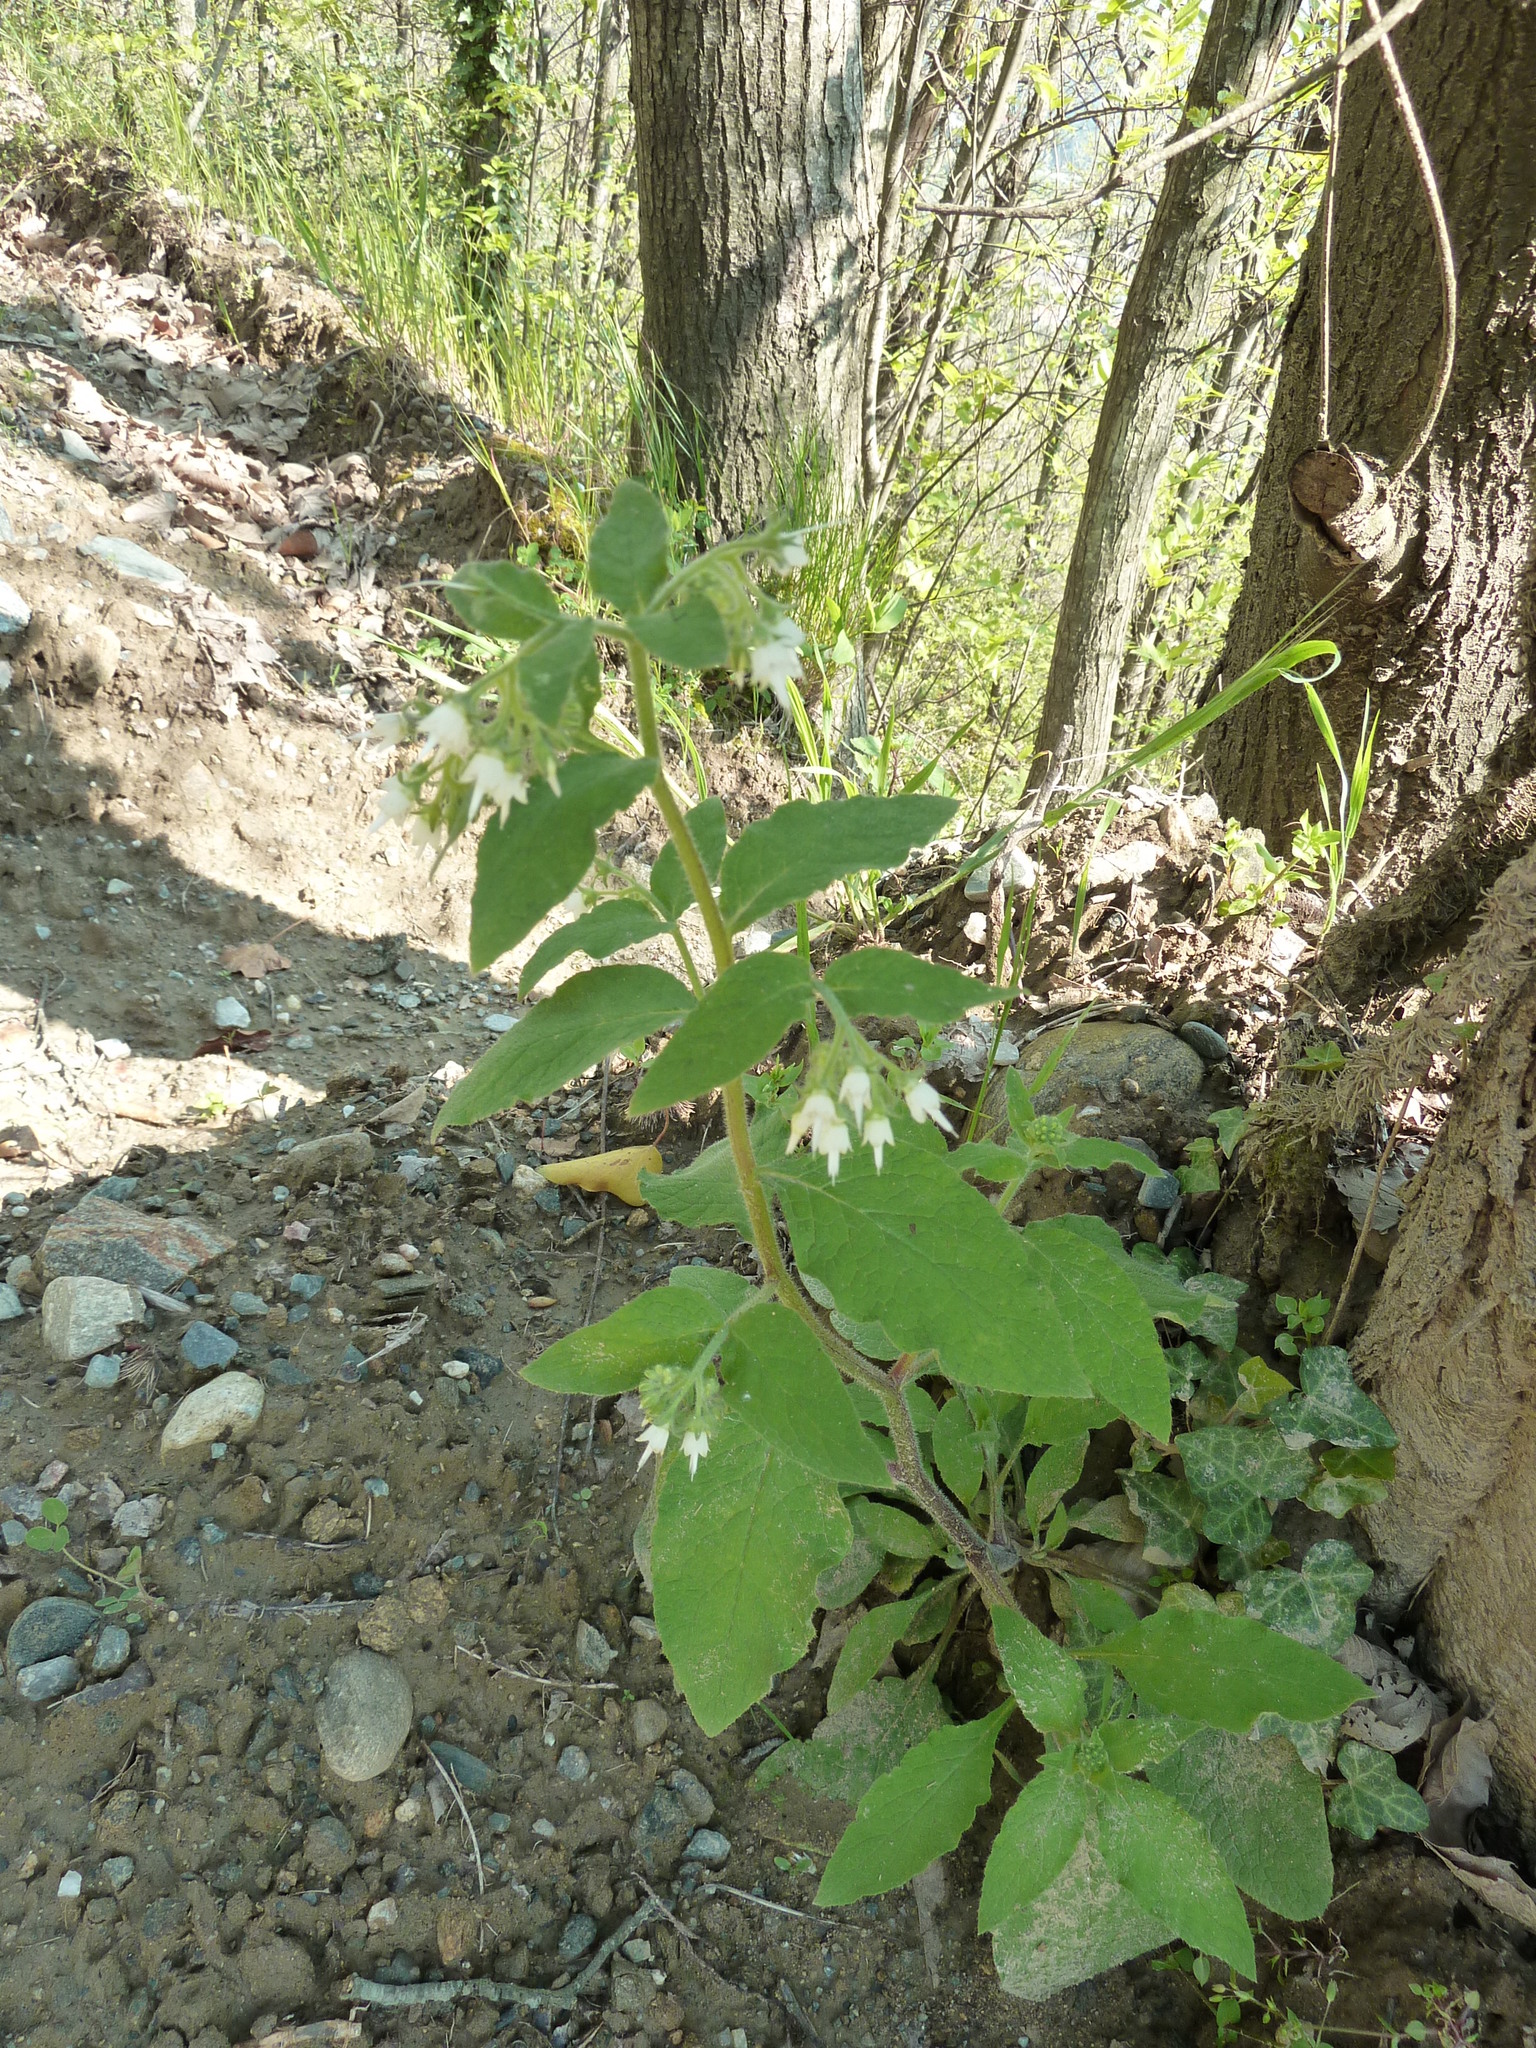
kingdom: Plantae
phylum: Tracheophyta
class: Magnoliopsida
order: Boraginales
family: Boraginaceae
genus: Symphytum
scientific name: Symphytum ottomanum
